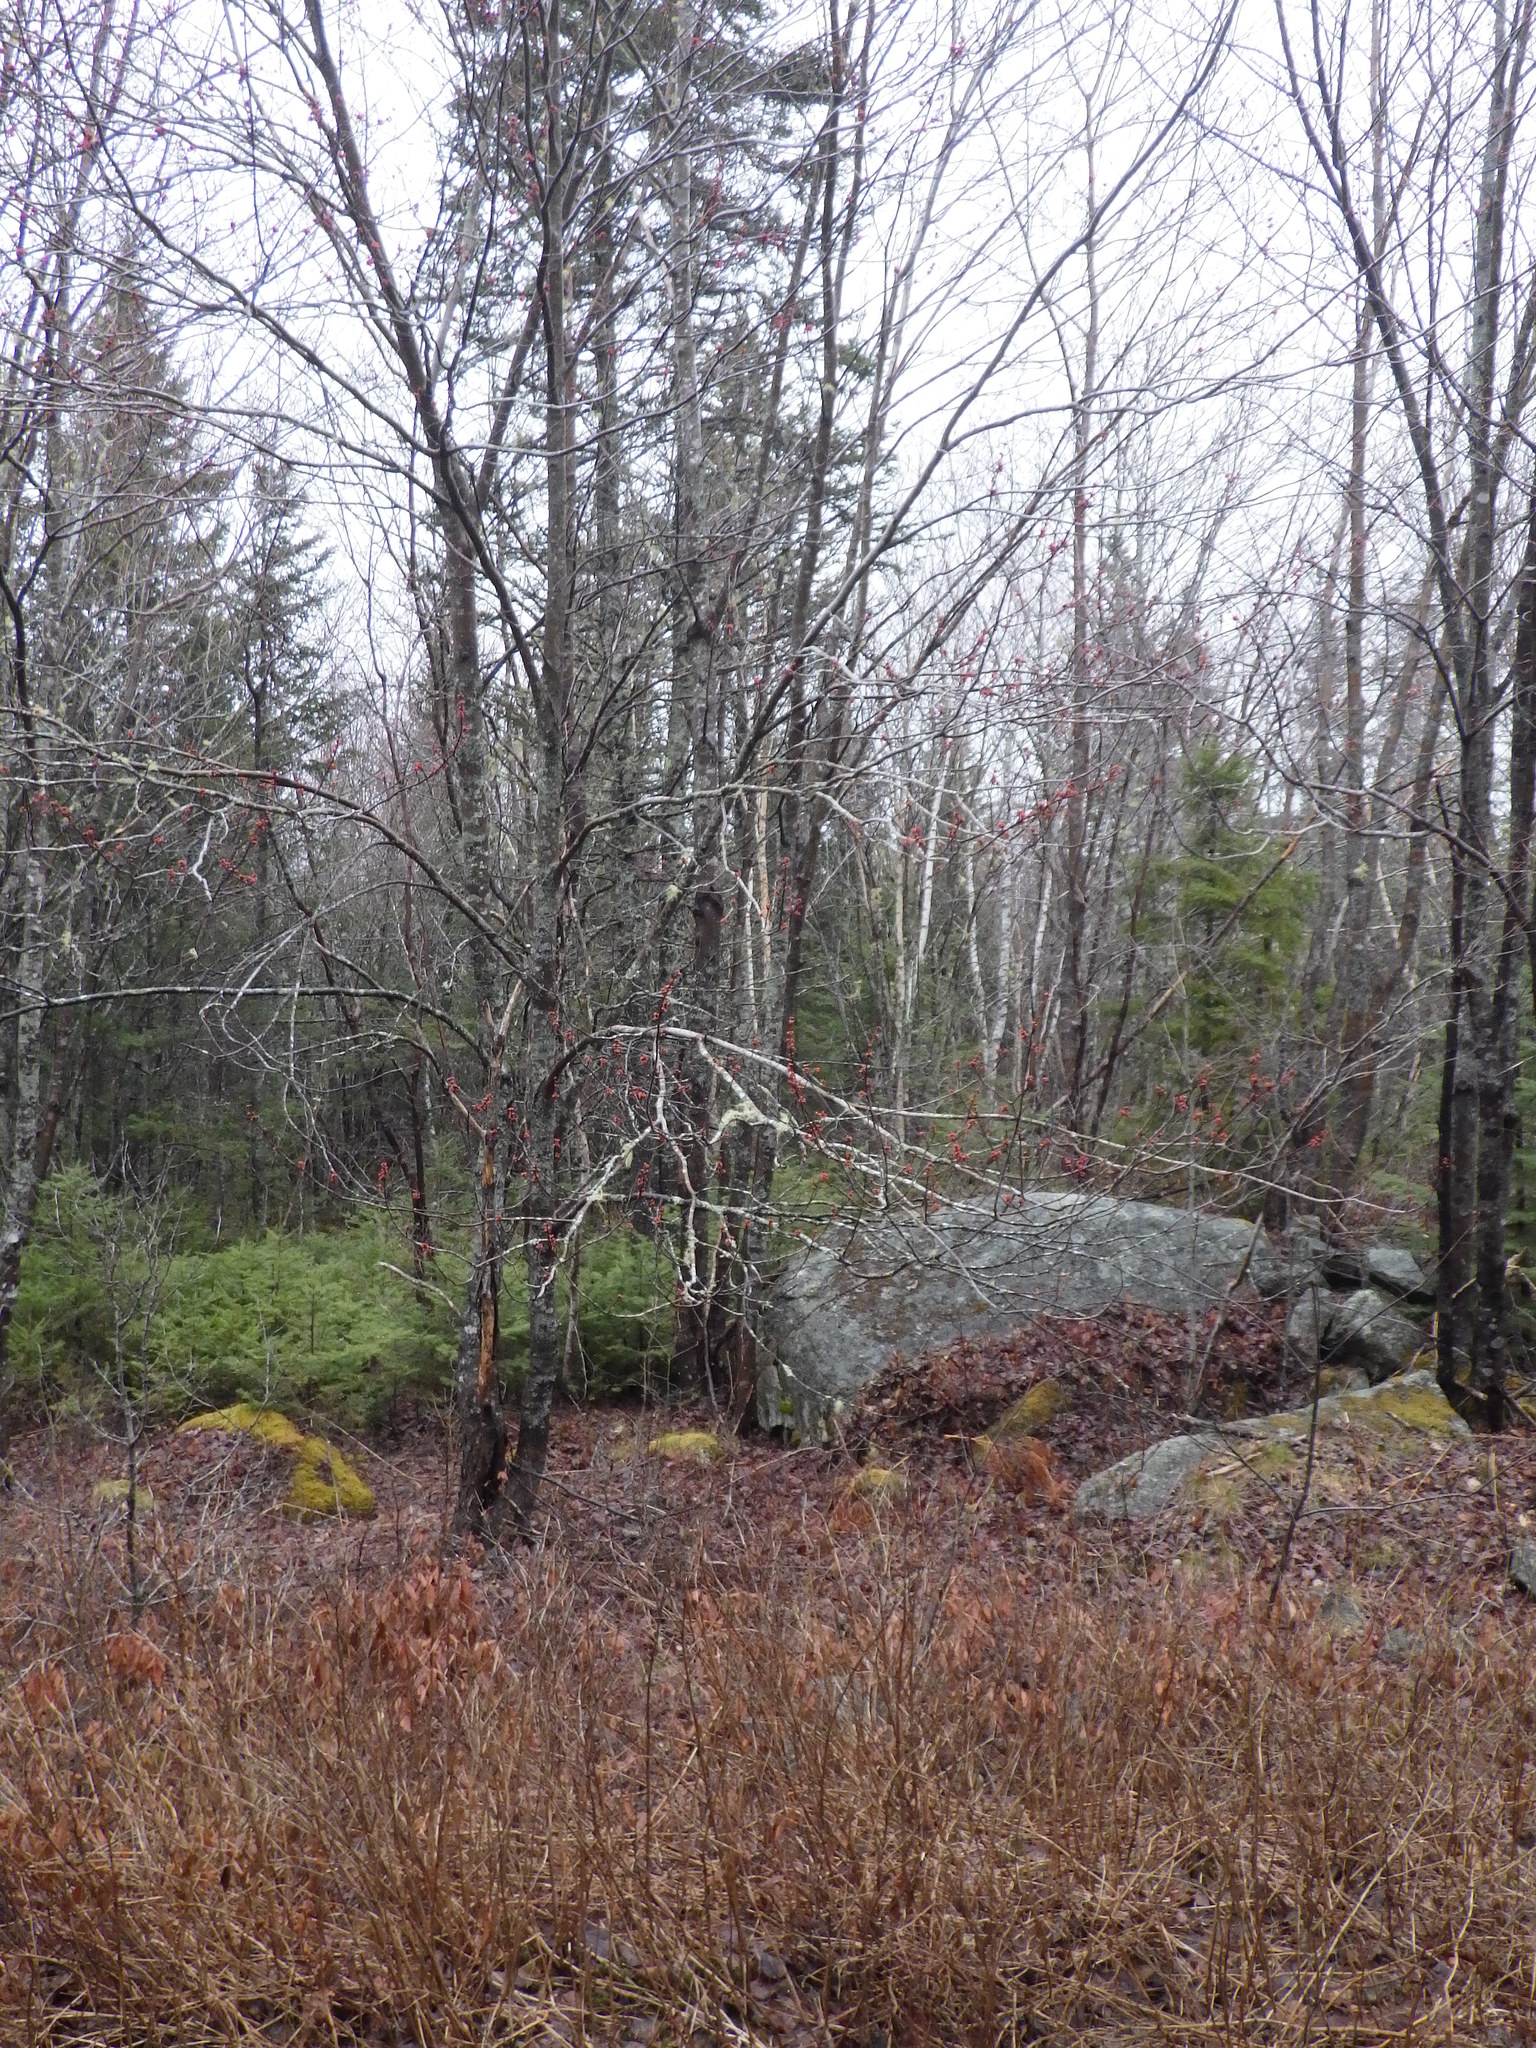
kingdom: Plantae
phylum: Tracheophyta
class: Magnoliopsida
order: Sapindales
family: Sapindaceae
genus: Acer
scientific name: Acer rubrum
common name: Red maple
